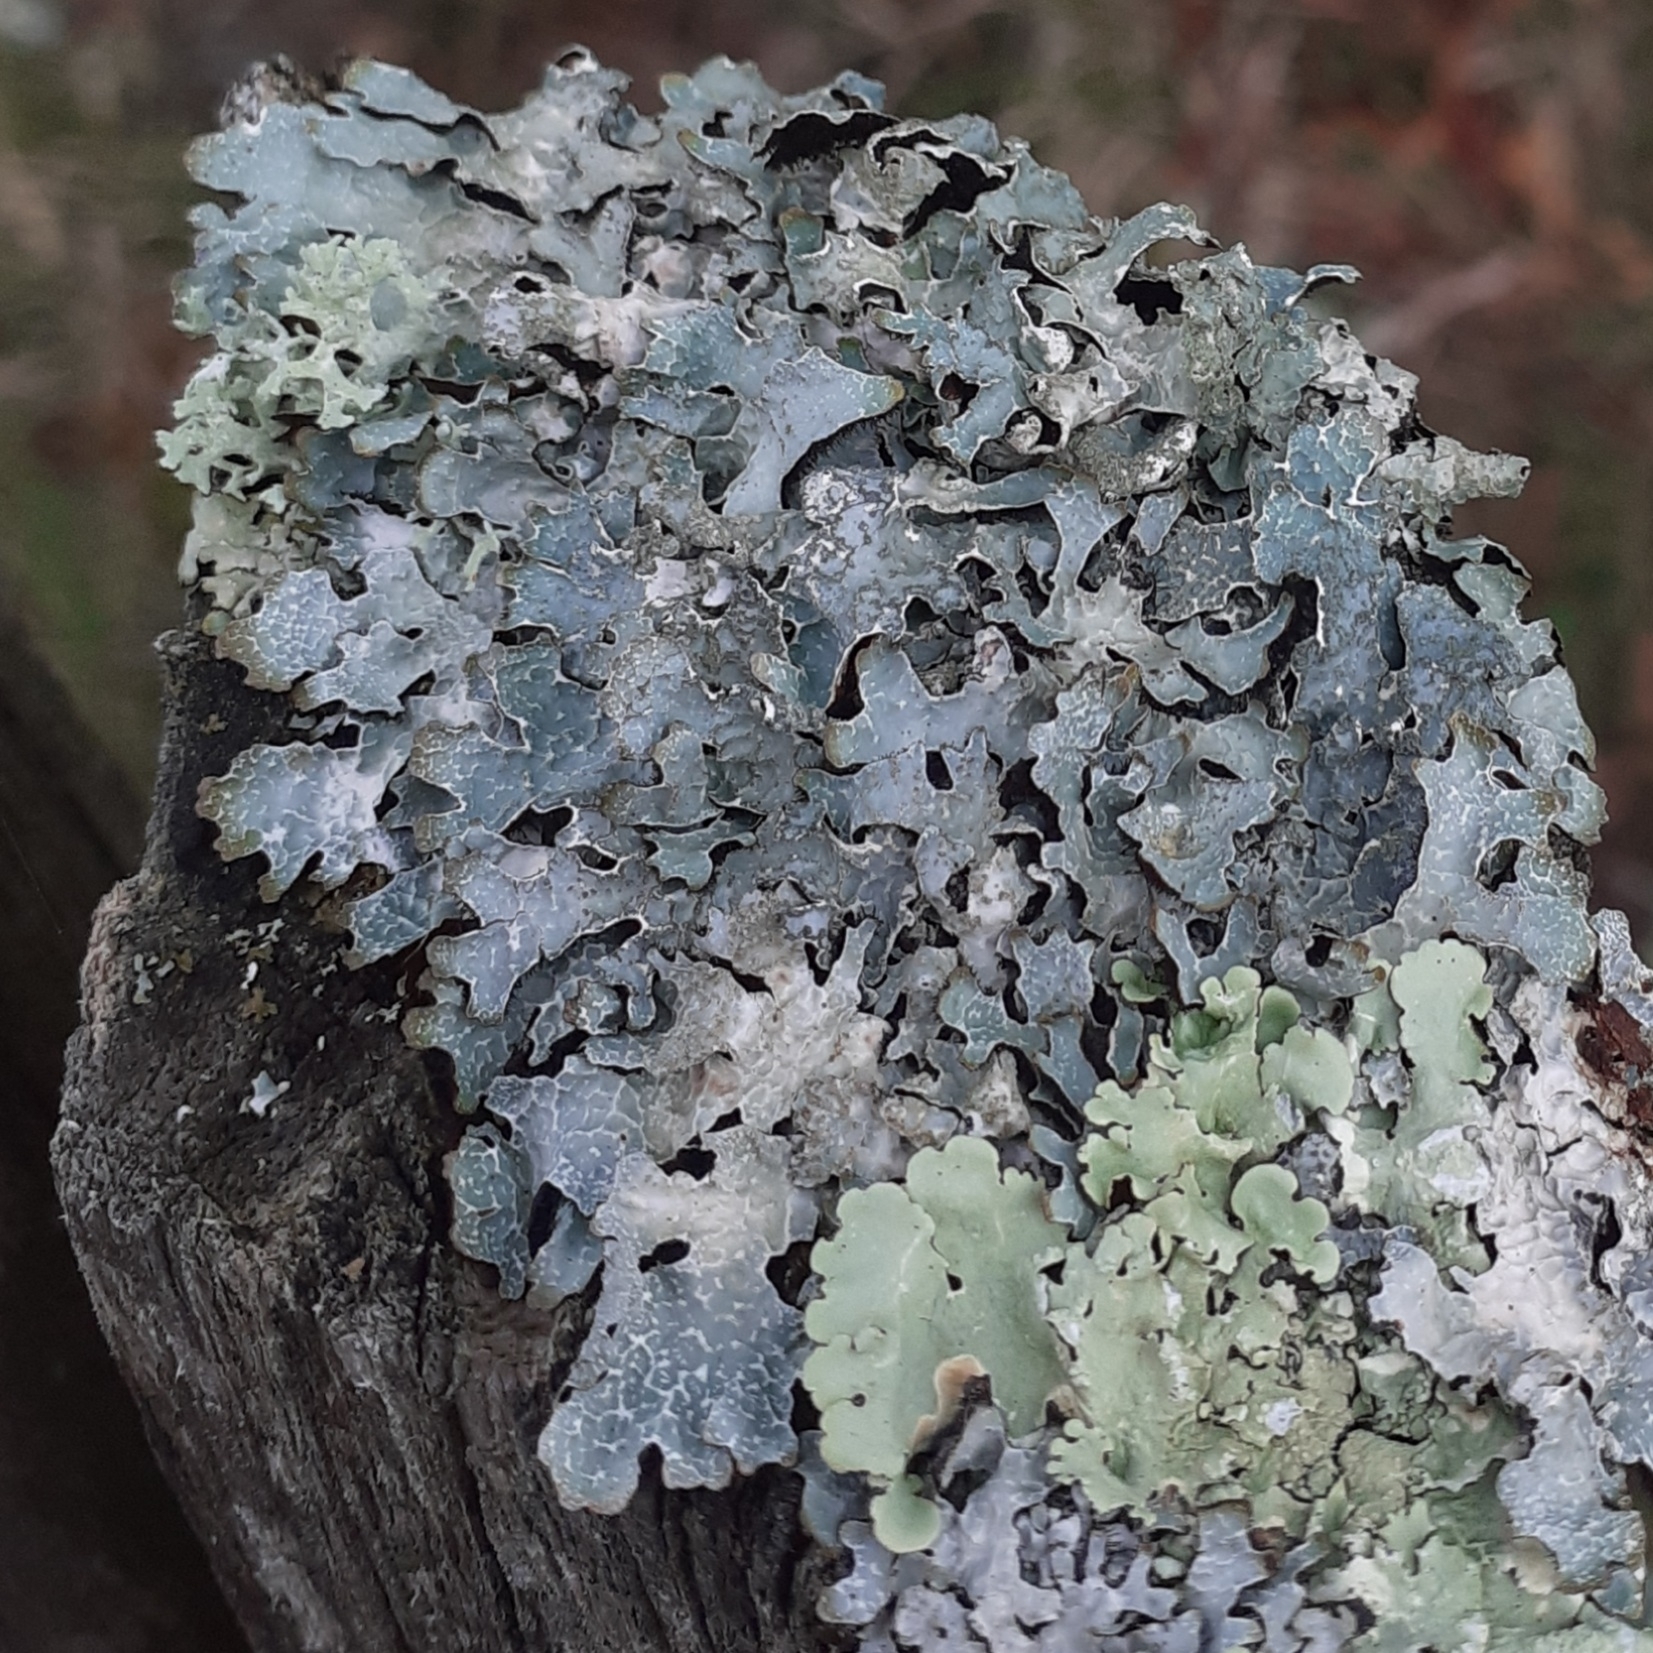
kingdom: Fungi
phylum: Ascomycota
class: Lecanoromycetes
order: Lecanorales
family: Parmeliaceae
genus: Parmelia
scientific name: Parmelia sulcata
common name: Netted shield lichen
